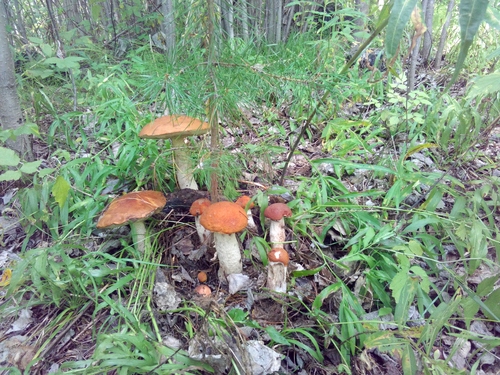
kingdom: Fungi
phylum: Basidiomycota
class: Agaricomycetes
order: Boletales
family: Boletaceae
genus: Leccinum
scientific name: Leccinum albostipitatum
